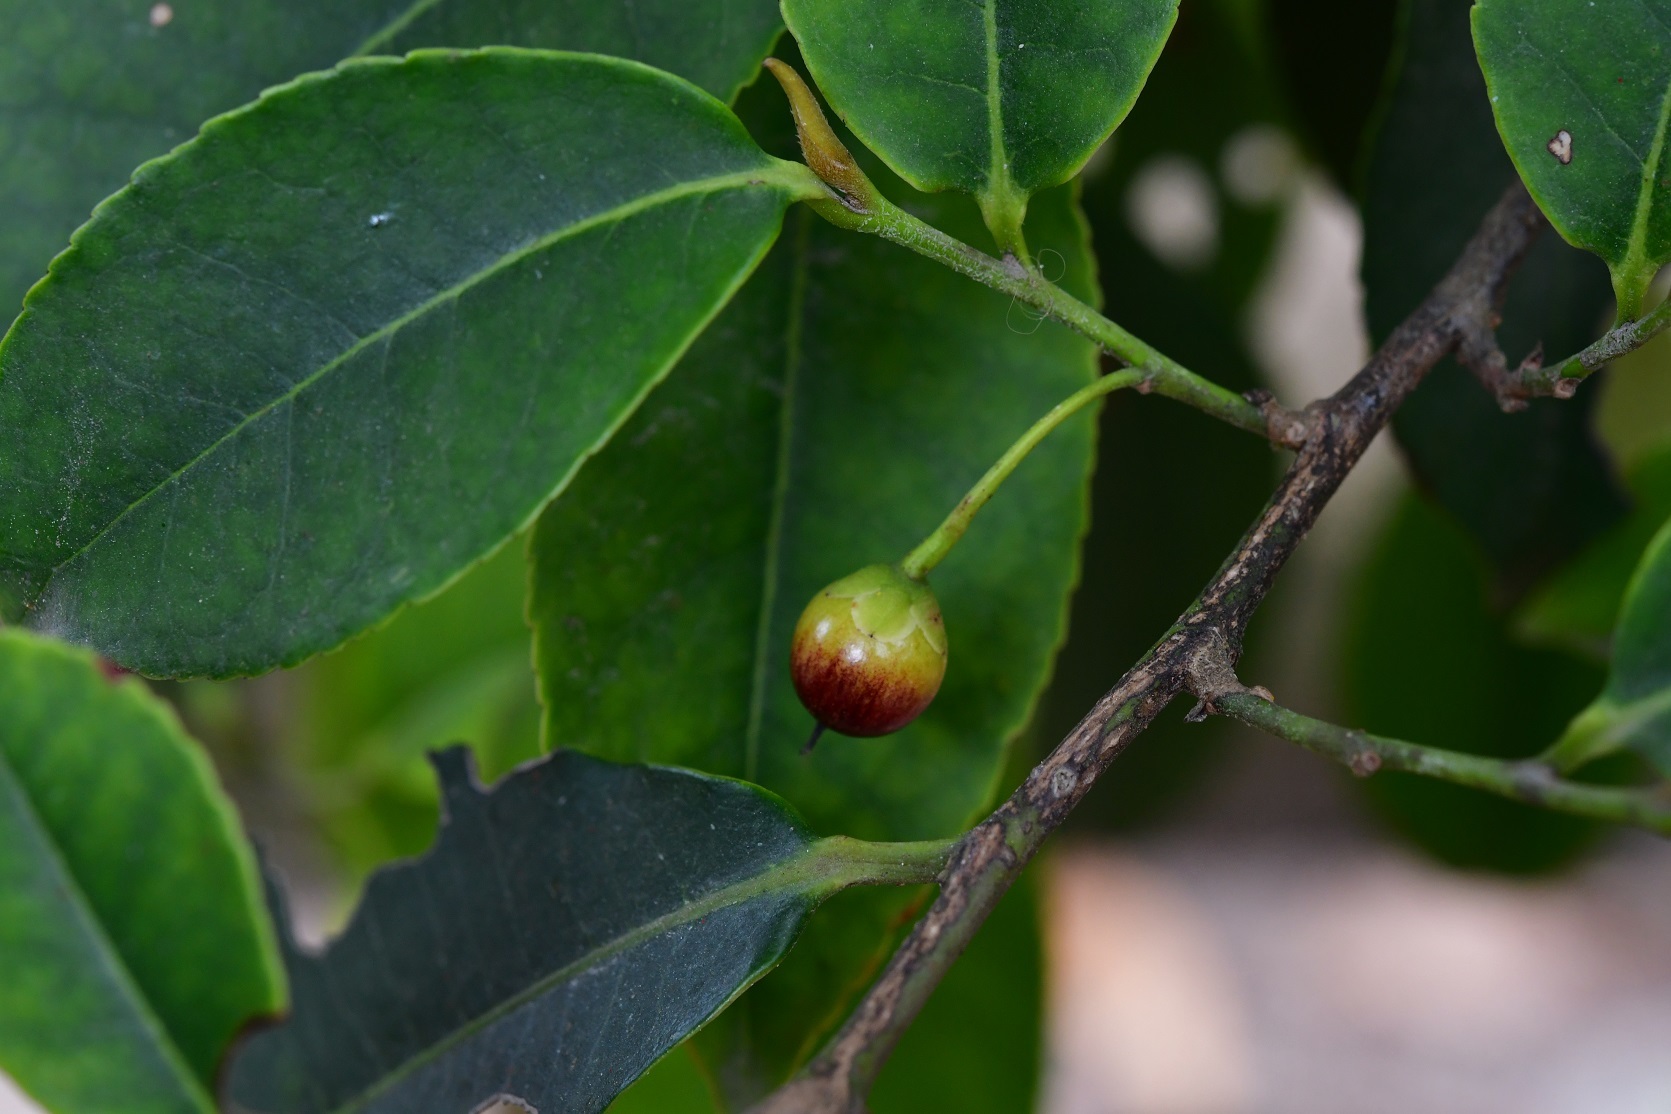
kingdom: Plantae
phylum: Tracheophyta
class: Magnoliopsida
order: Ericales
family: Pentaphylacaceae
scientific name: Pentaphylacaceae
